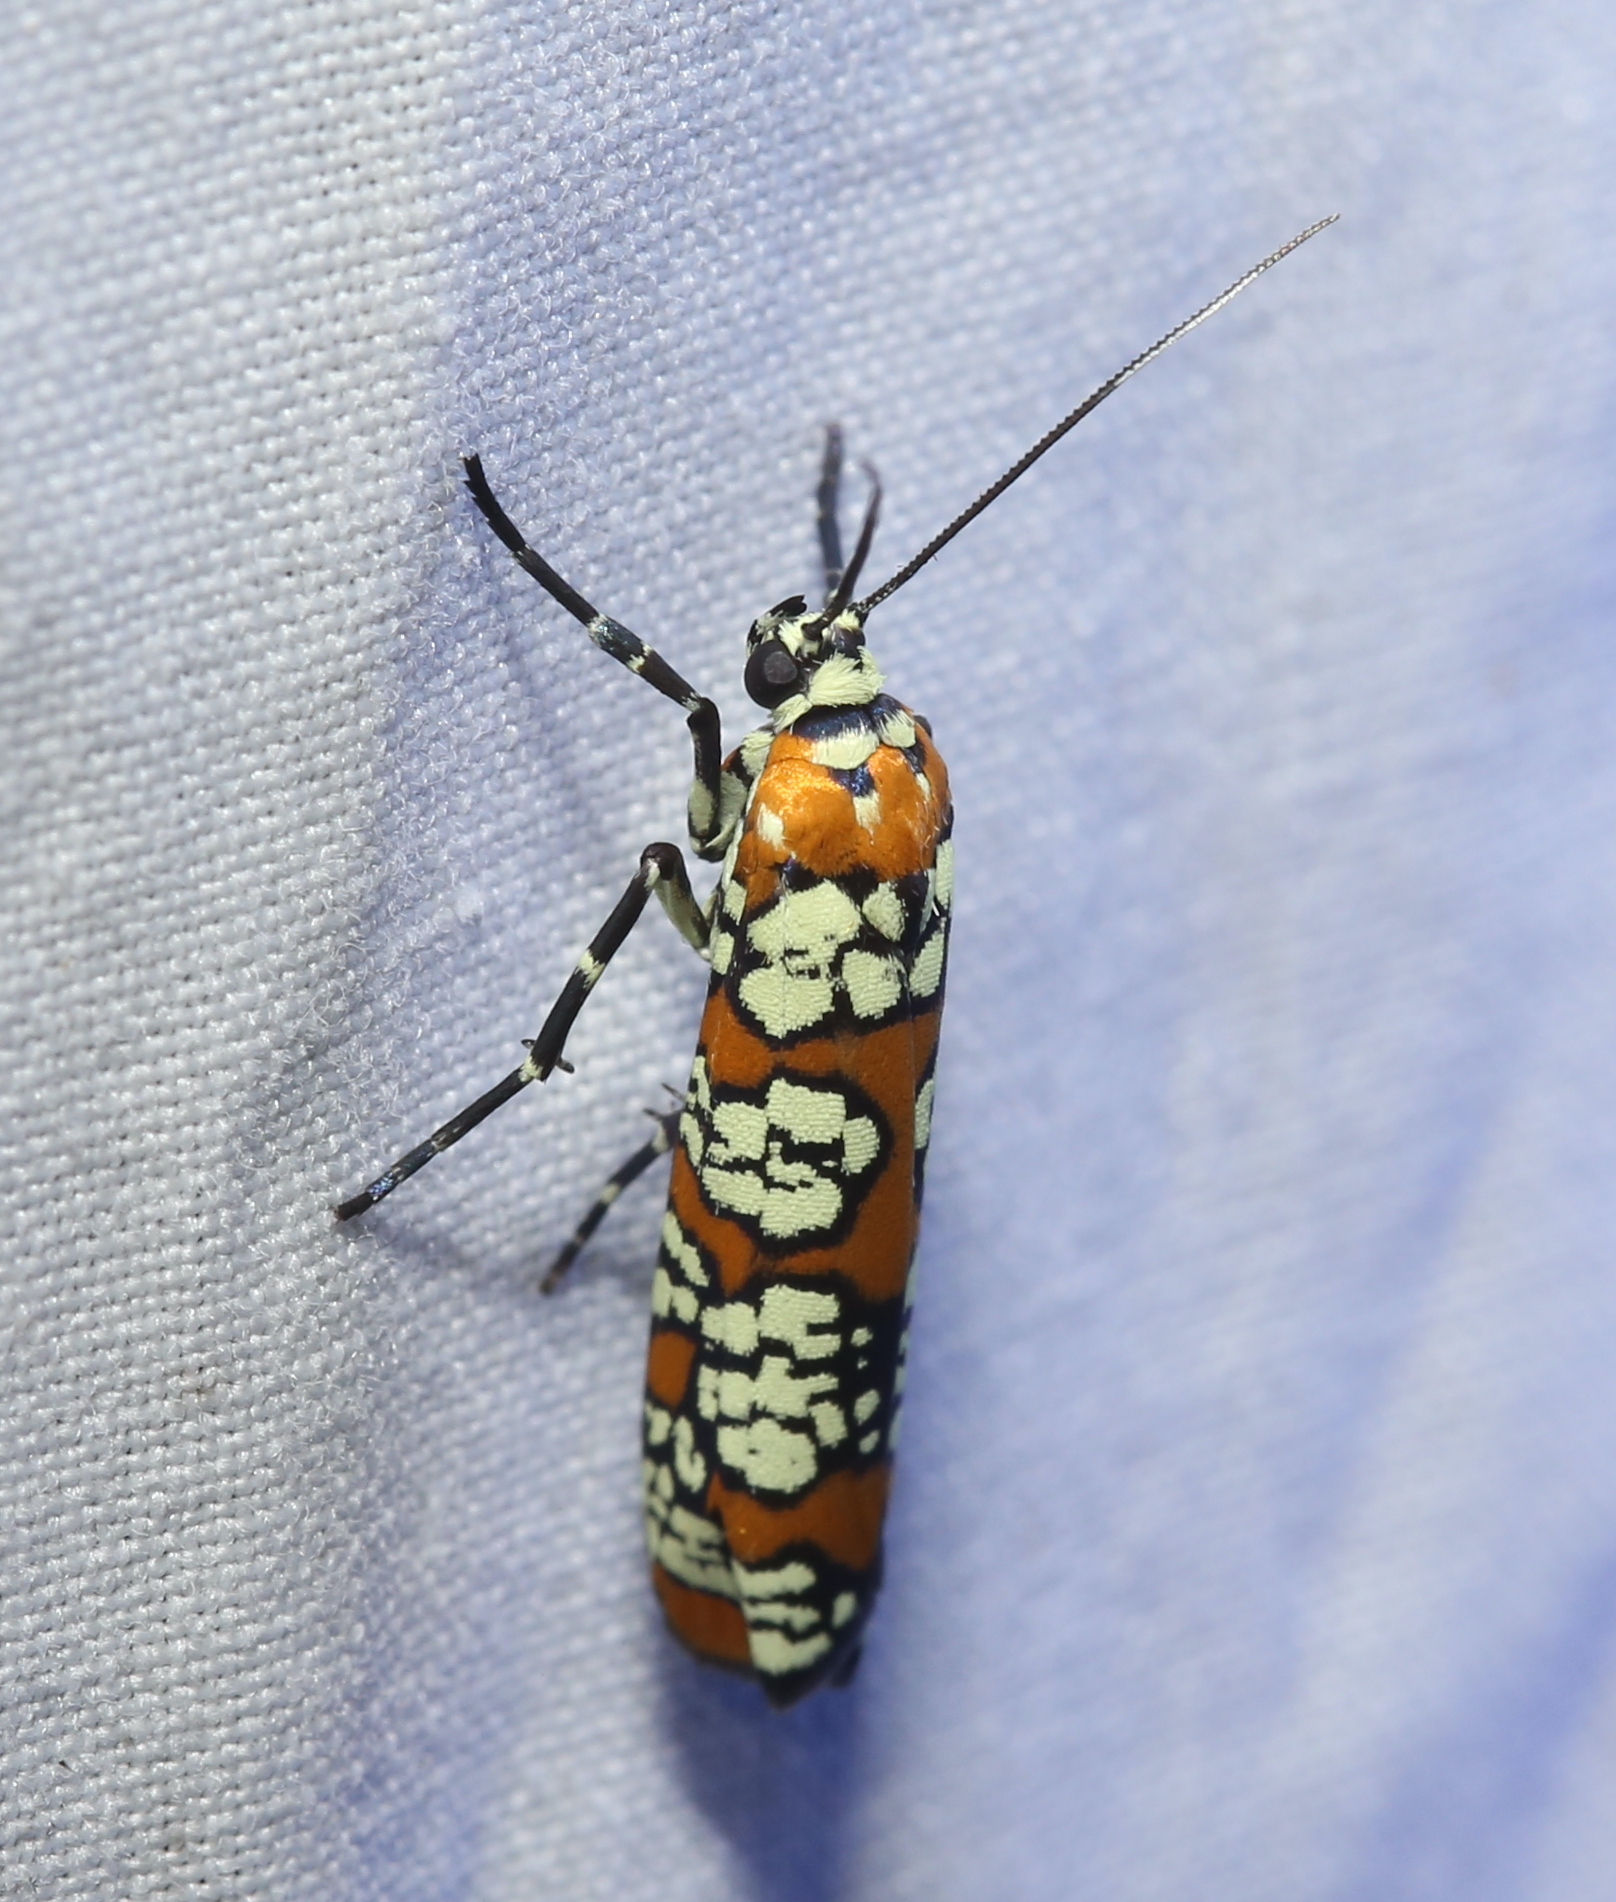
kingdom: Animalia
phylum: Arthropoda
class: Insecta
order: Lepidoptera
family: Attevidae
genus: Atteva
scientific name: Atteva punctella
